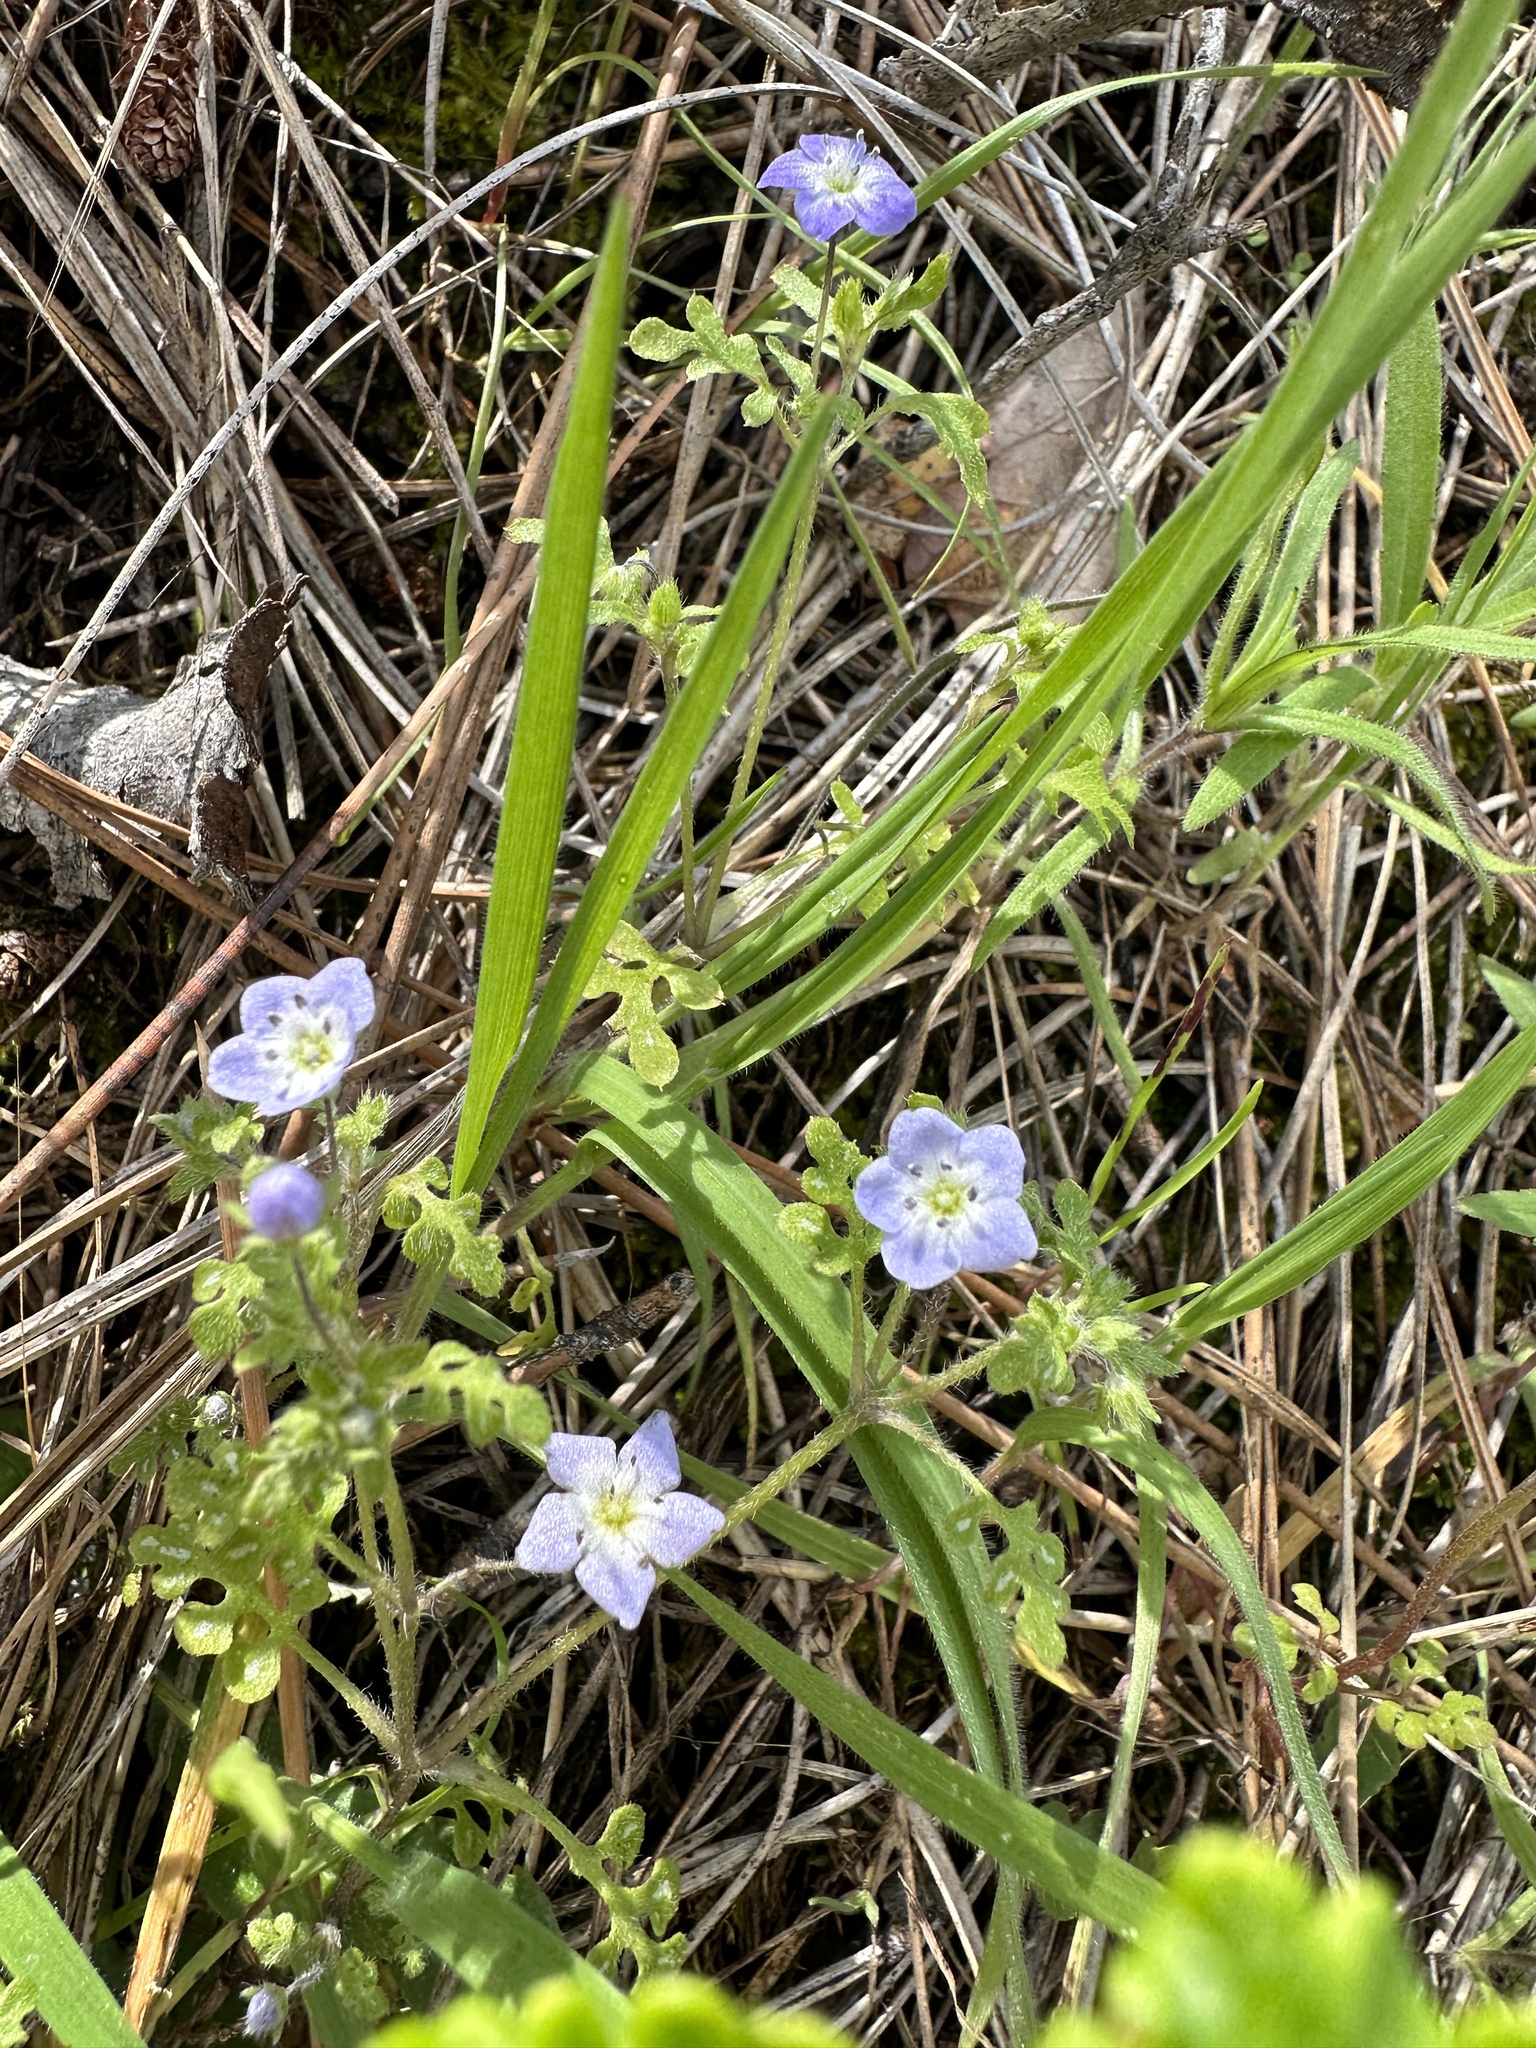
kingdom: Plantae
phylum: Tracheophyta
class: Magnoliopsida
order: Boraginales
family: Hydrophyllaceae
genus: Nemophila
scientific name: Nemophila pulchella
